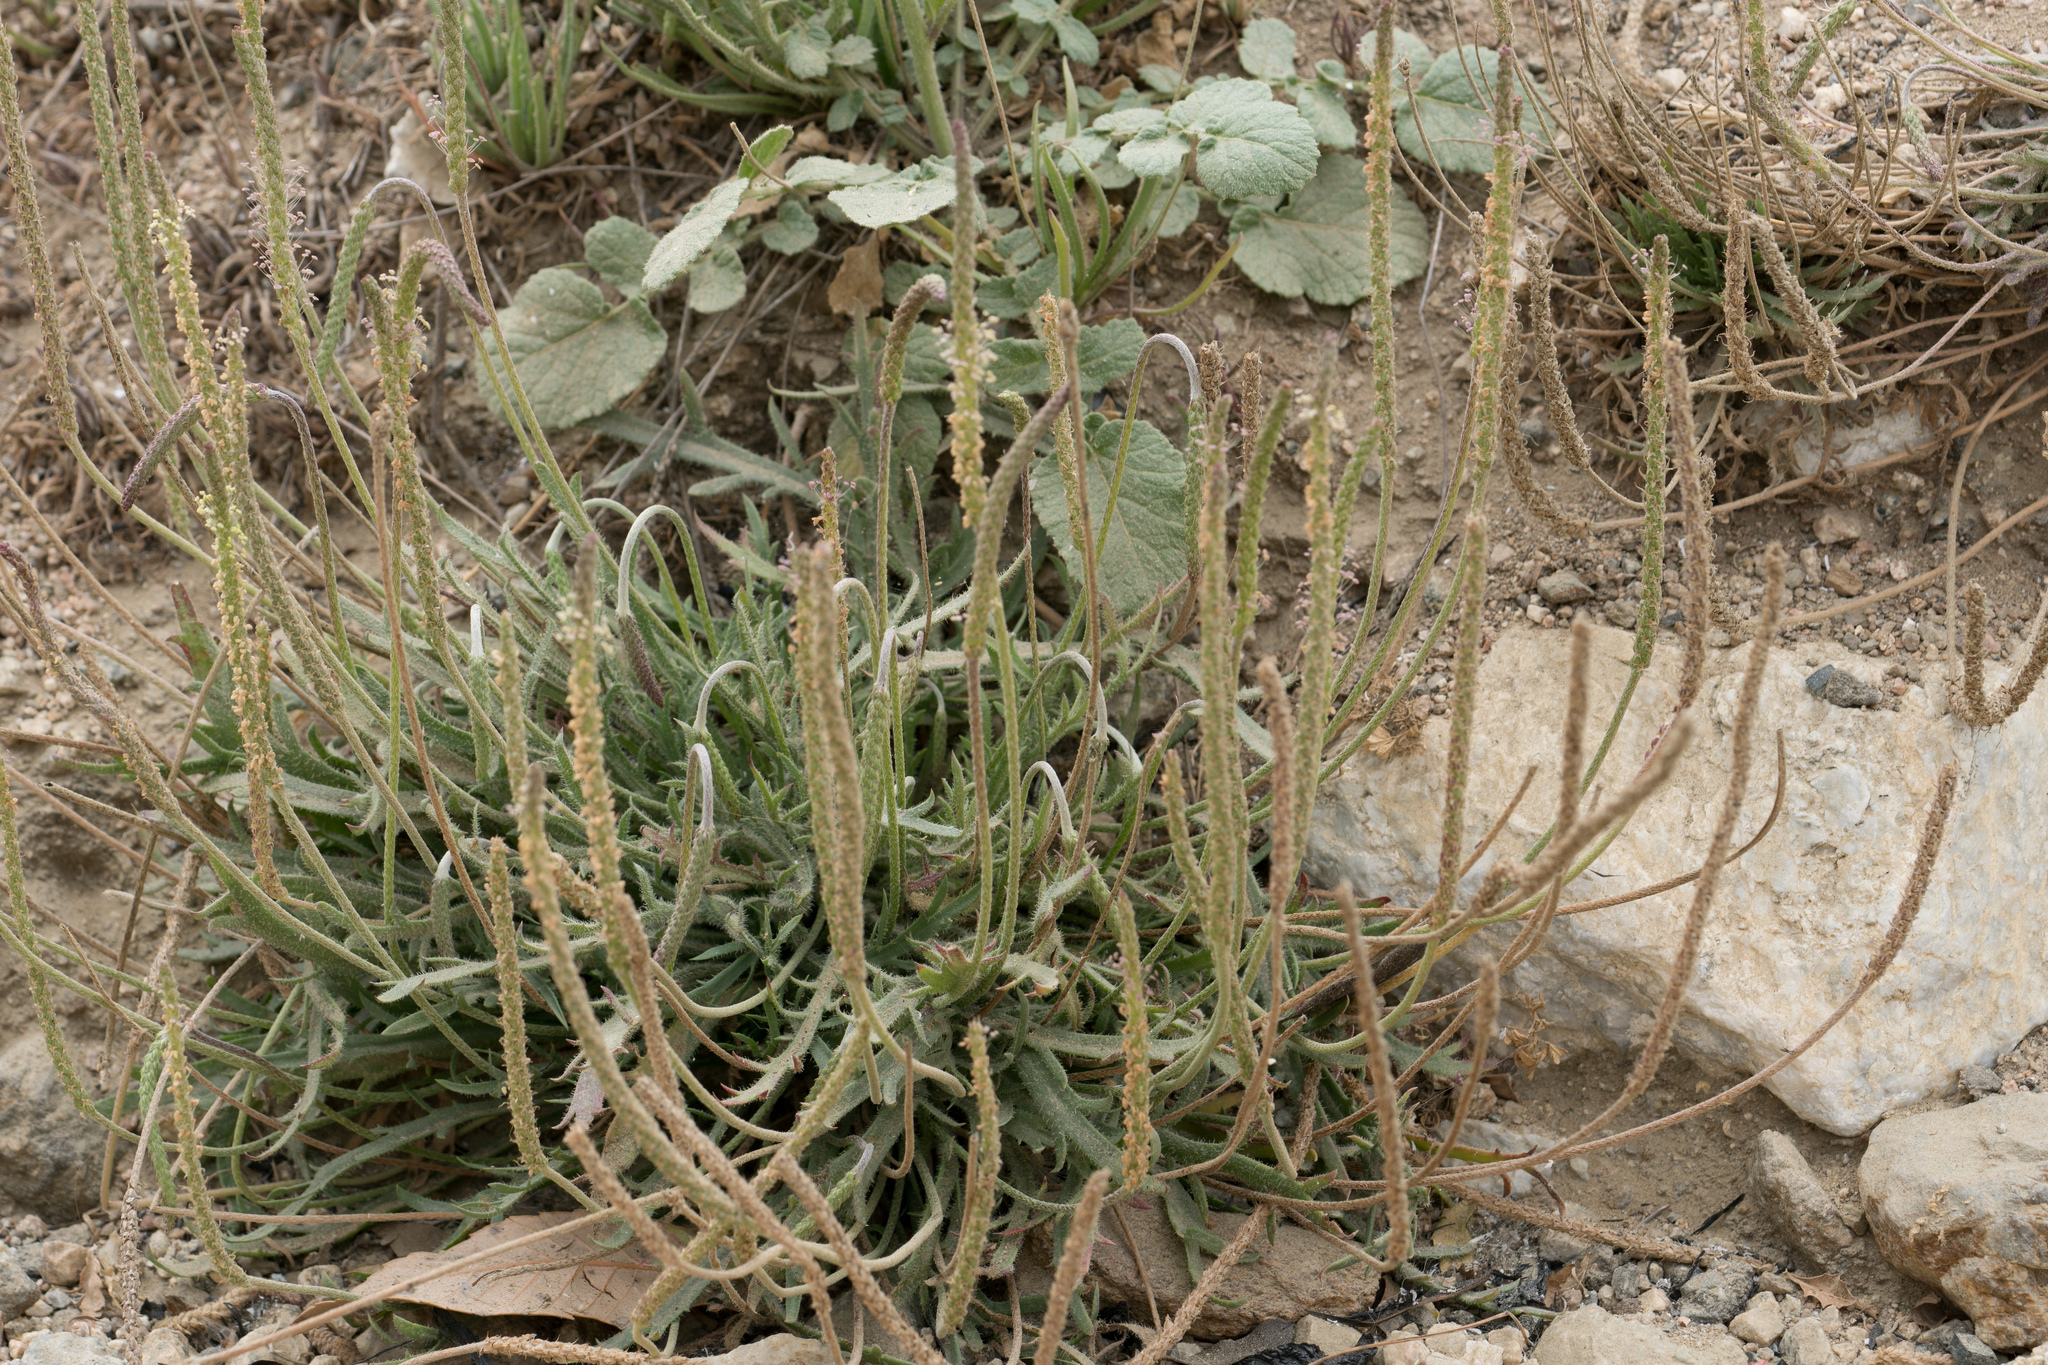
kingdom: Plantae
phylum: Tracheophyta
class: Magnoliopsida
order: Lamiales
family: Plantaginaceae
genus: Plantago
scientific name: Plantago coronopus
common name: Buck's-horn plantain
